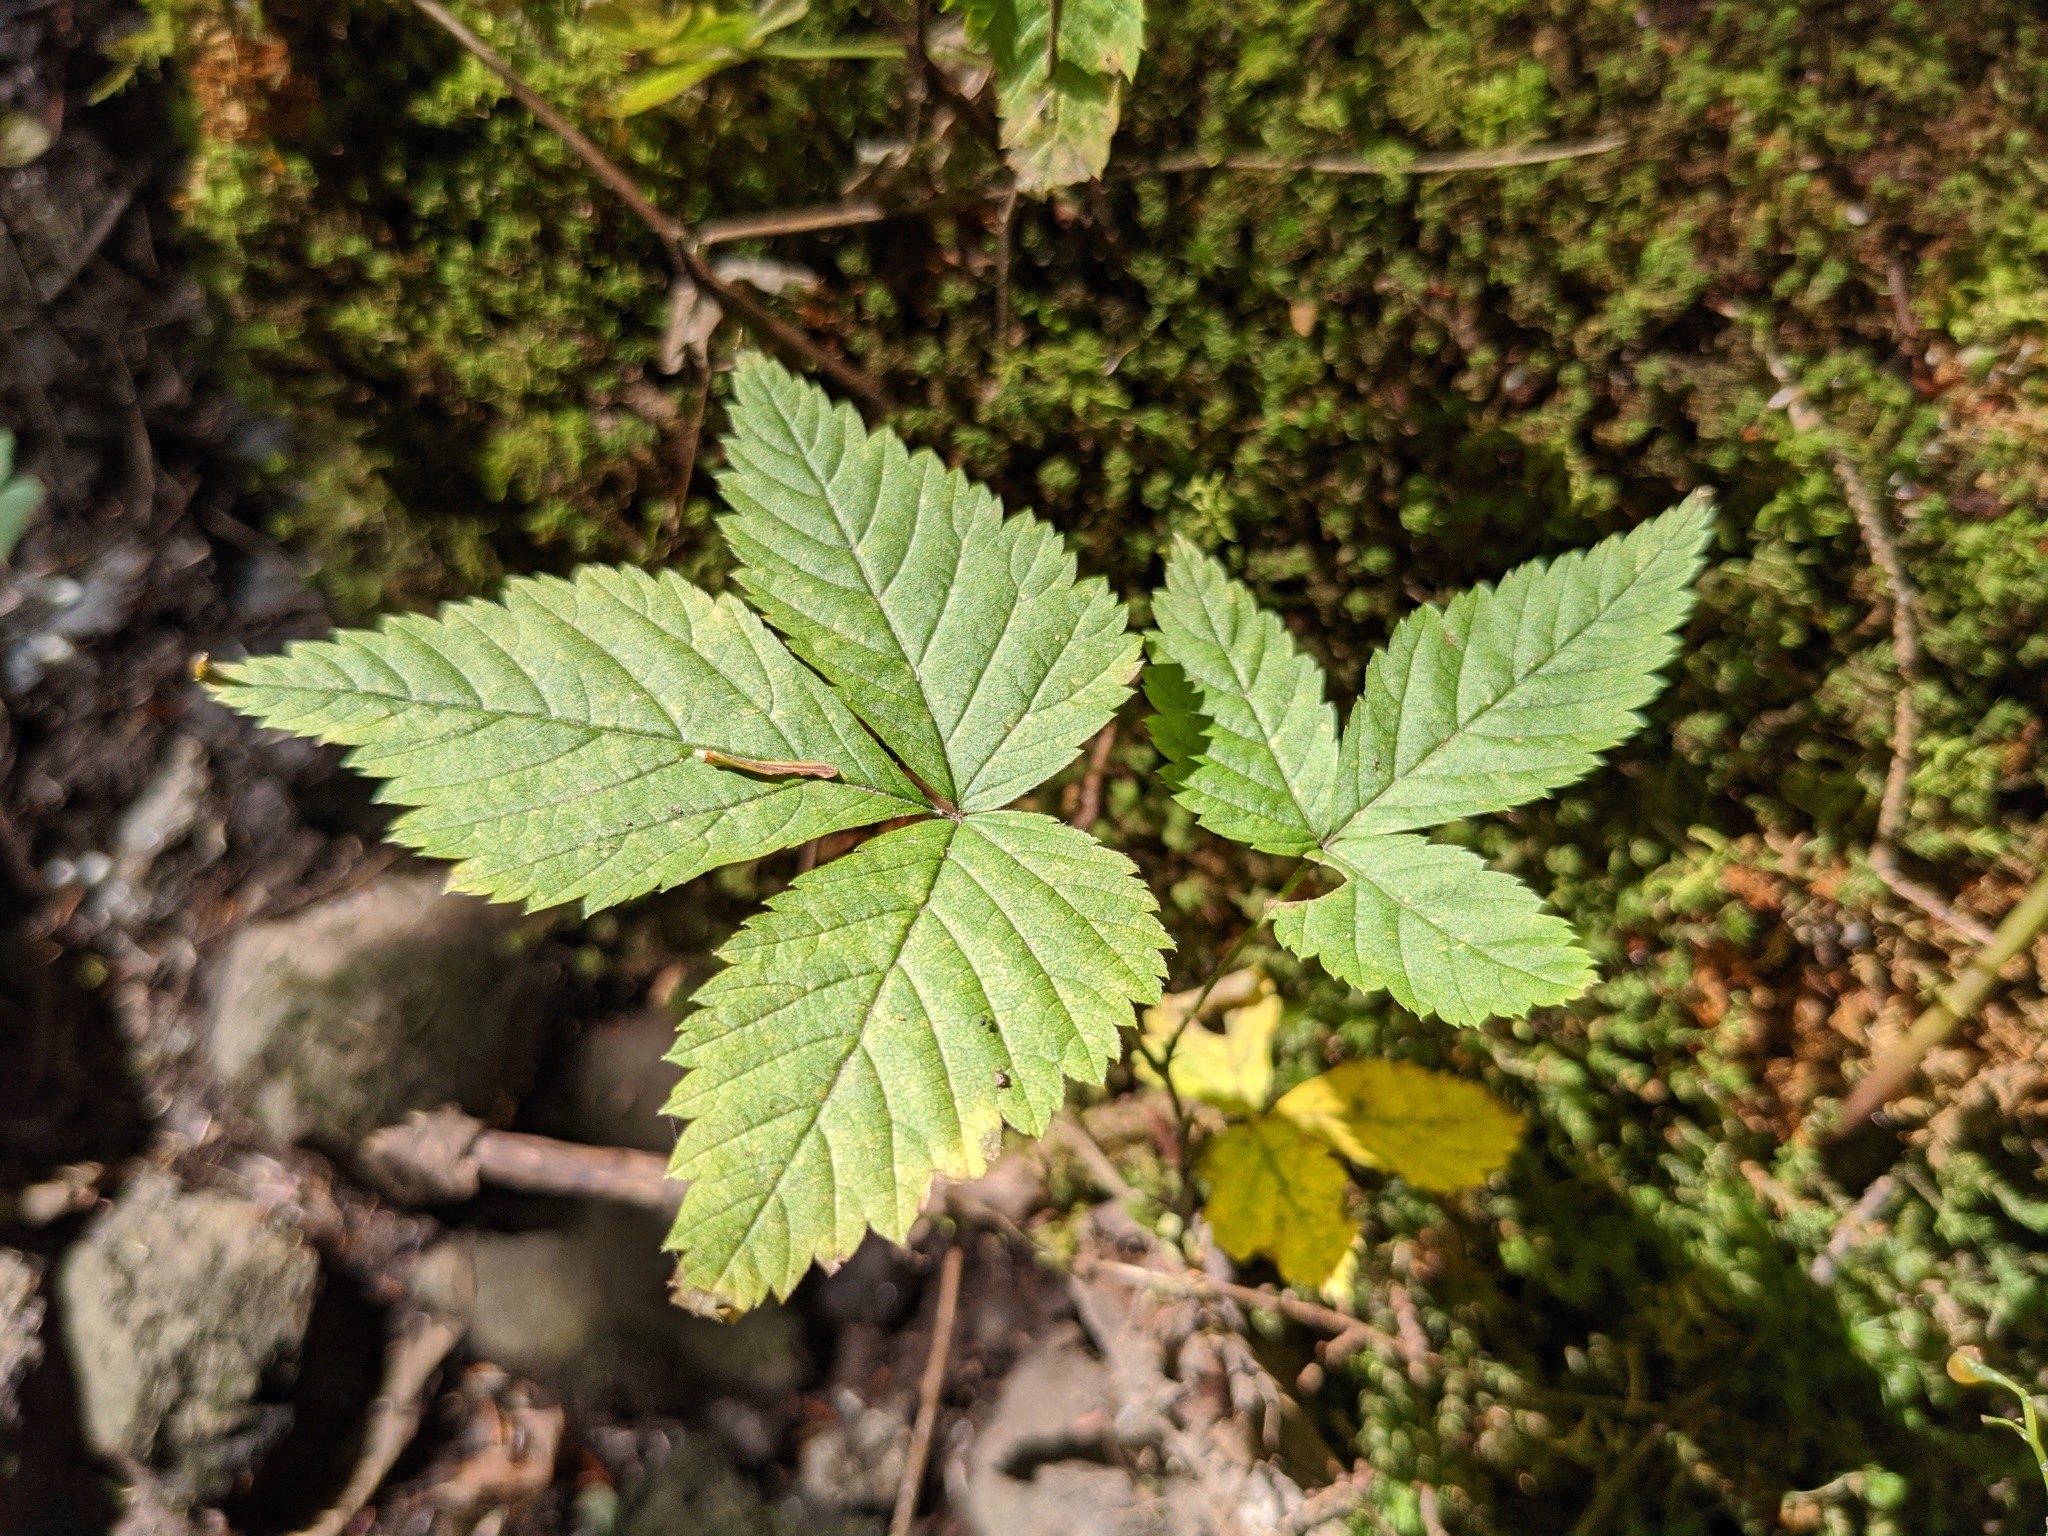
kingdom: Plantae
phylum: Tracheophyta
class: Magnoliopsida
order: Rosales
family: Rosaceae
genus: Rubus
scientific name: Rubus pubescens
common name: Dwarf raspberry
